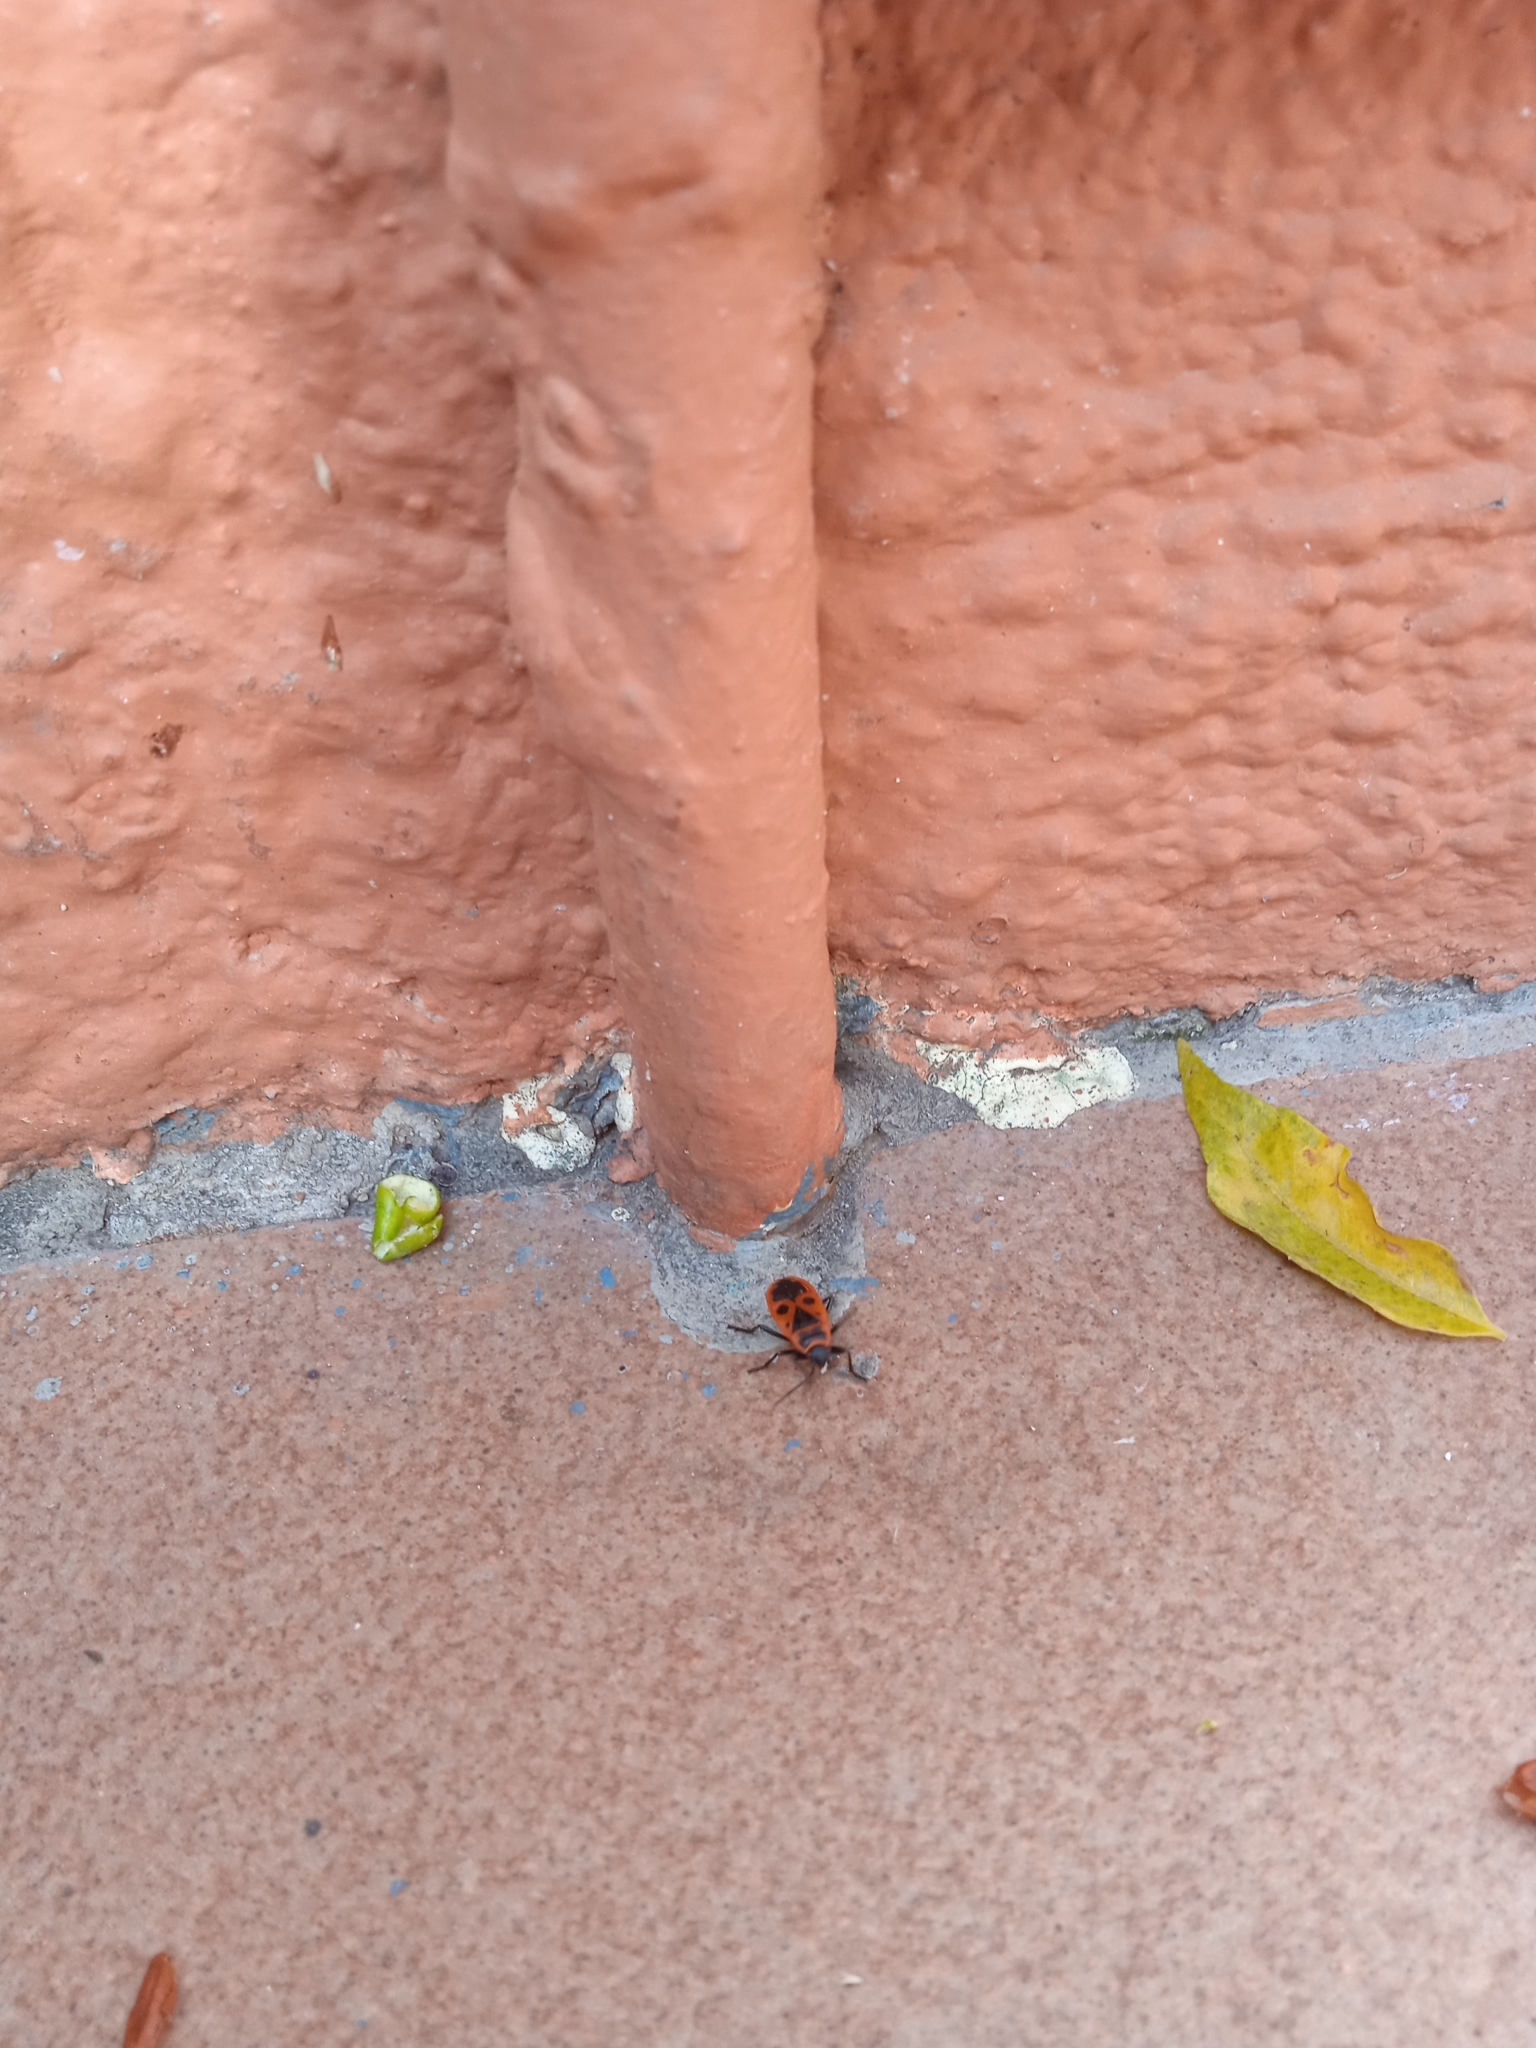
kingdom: Animalia
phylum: Arthropoda
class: Insecta
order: Hemiptera
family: Pyrrhocoridae
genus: Pyrrhocoris
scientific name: Pyrrhocoris apterus
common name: Firebug
